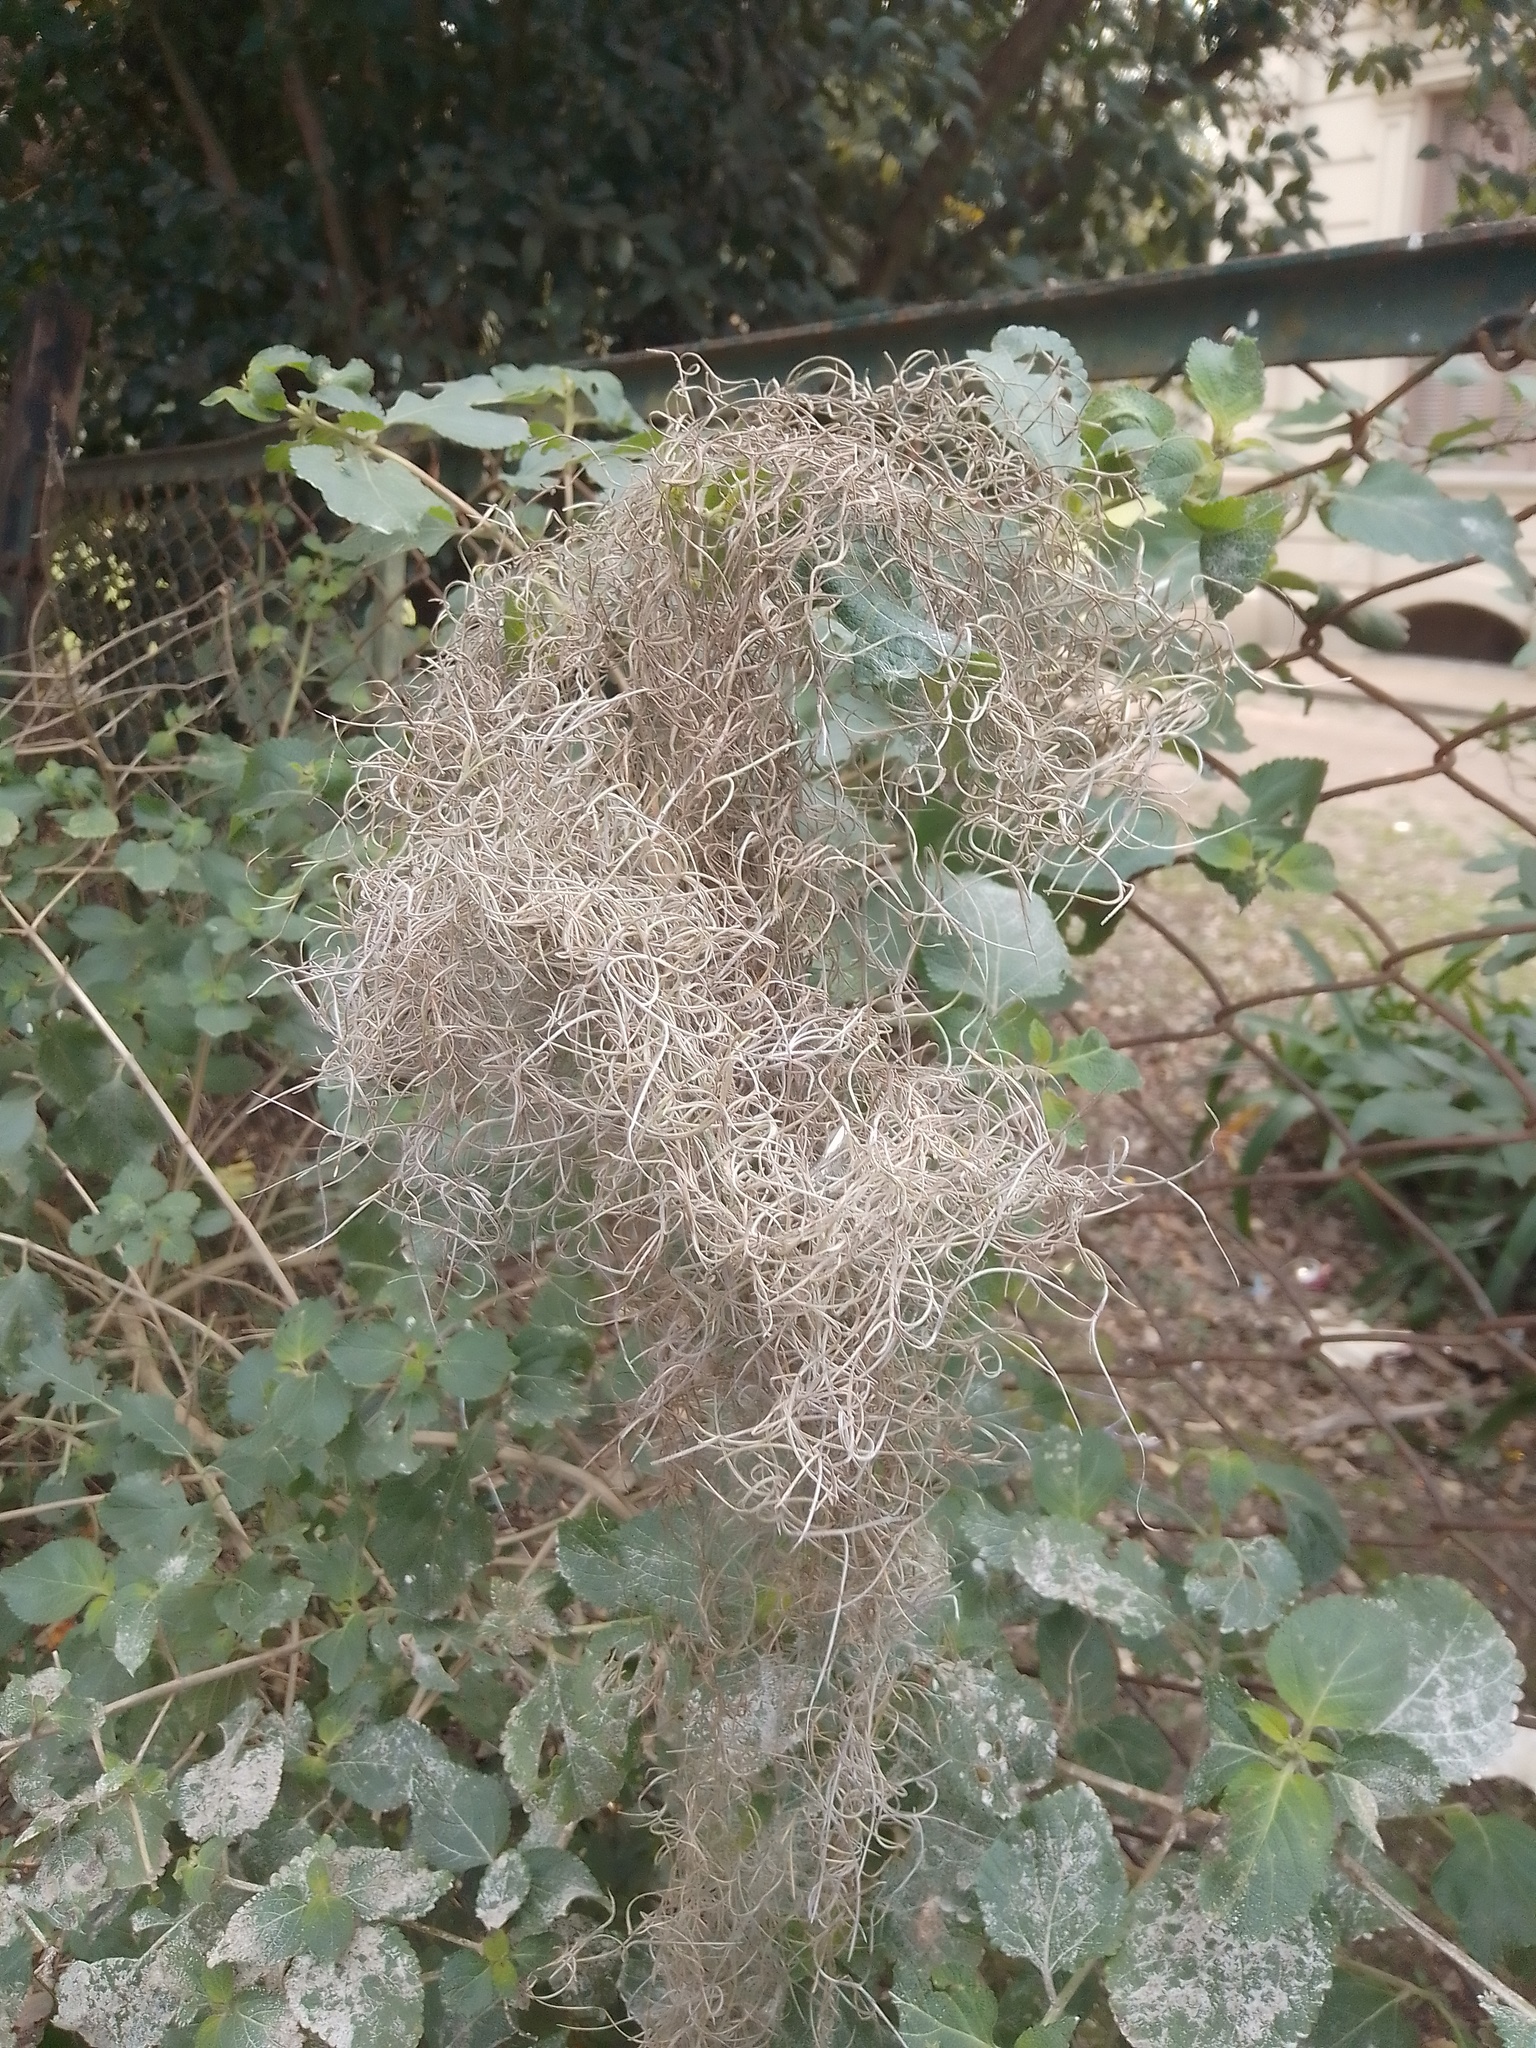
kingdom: Plantae
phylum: Tracheophyta
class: Liliopsida
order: Poales
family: Bromeliaceae
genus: Tillandsia
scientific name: Tillandsia usneoides
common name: Spanish moss
